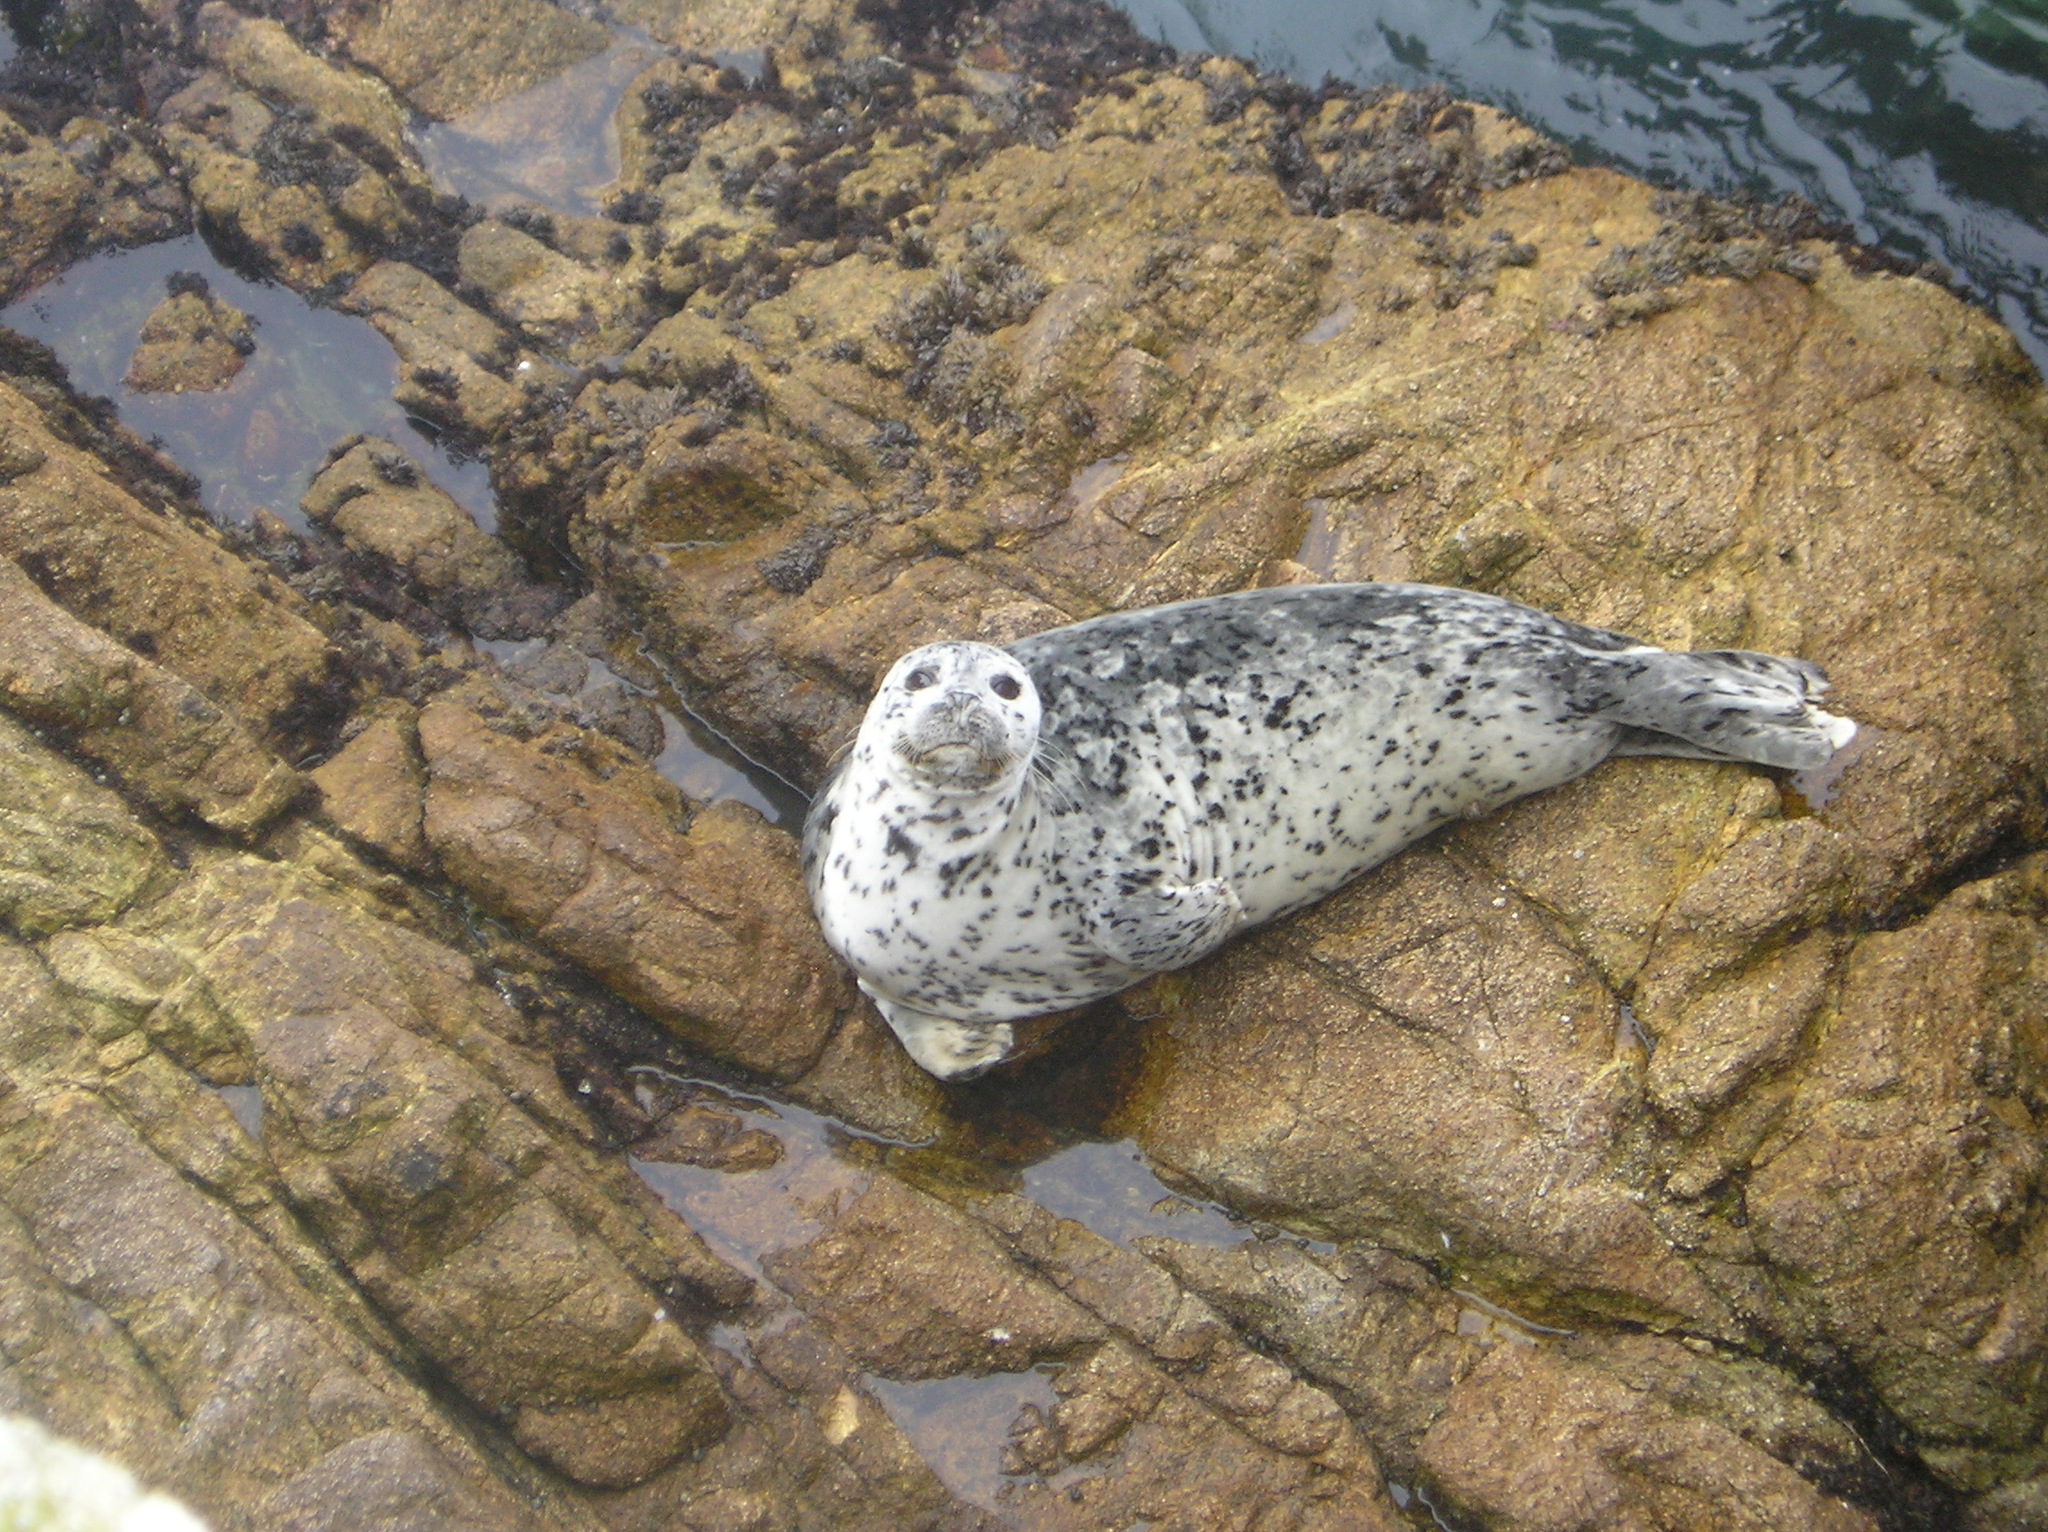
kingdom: Animalia
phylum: Chordata
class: Mammalia
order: Carnivora
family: Phocidae
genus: Phoca
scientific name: Phoca vitulina
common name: Harbor seal
